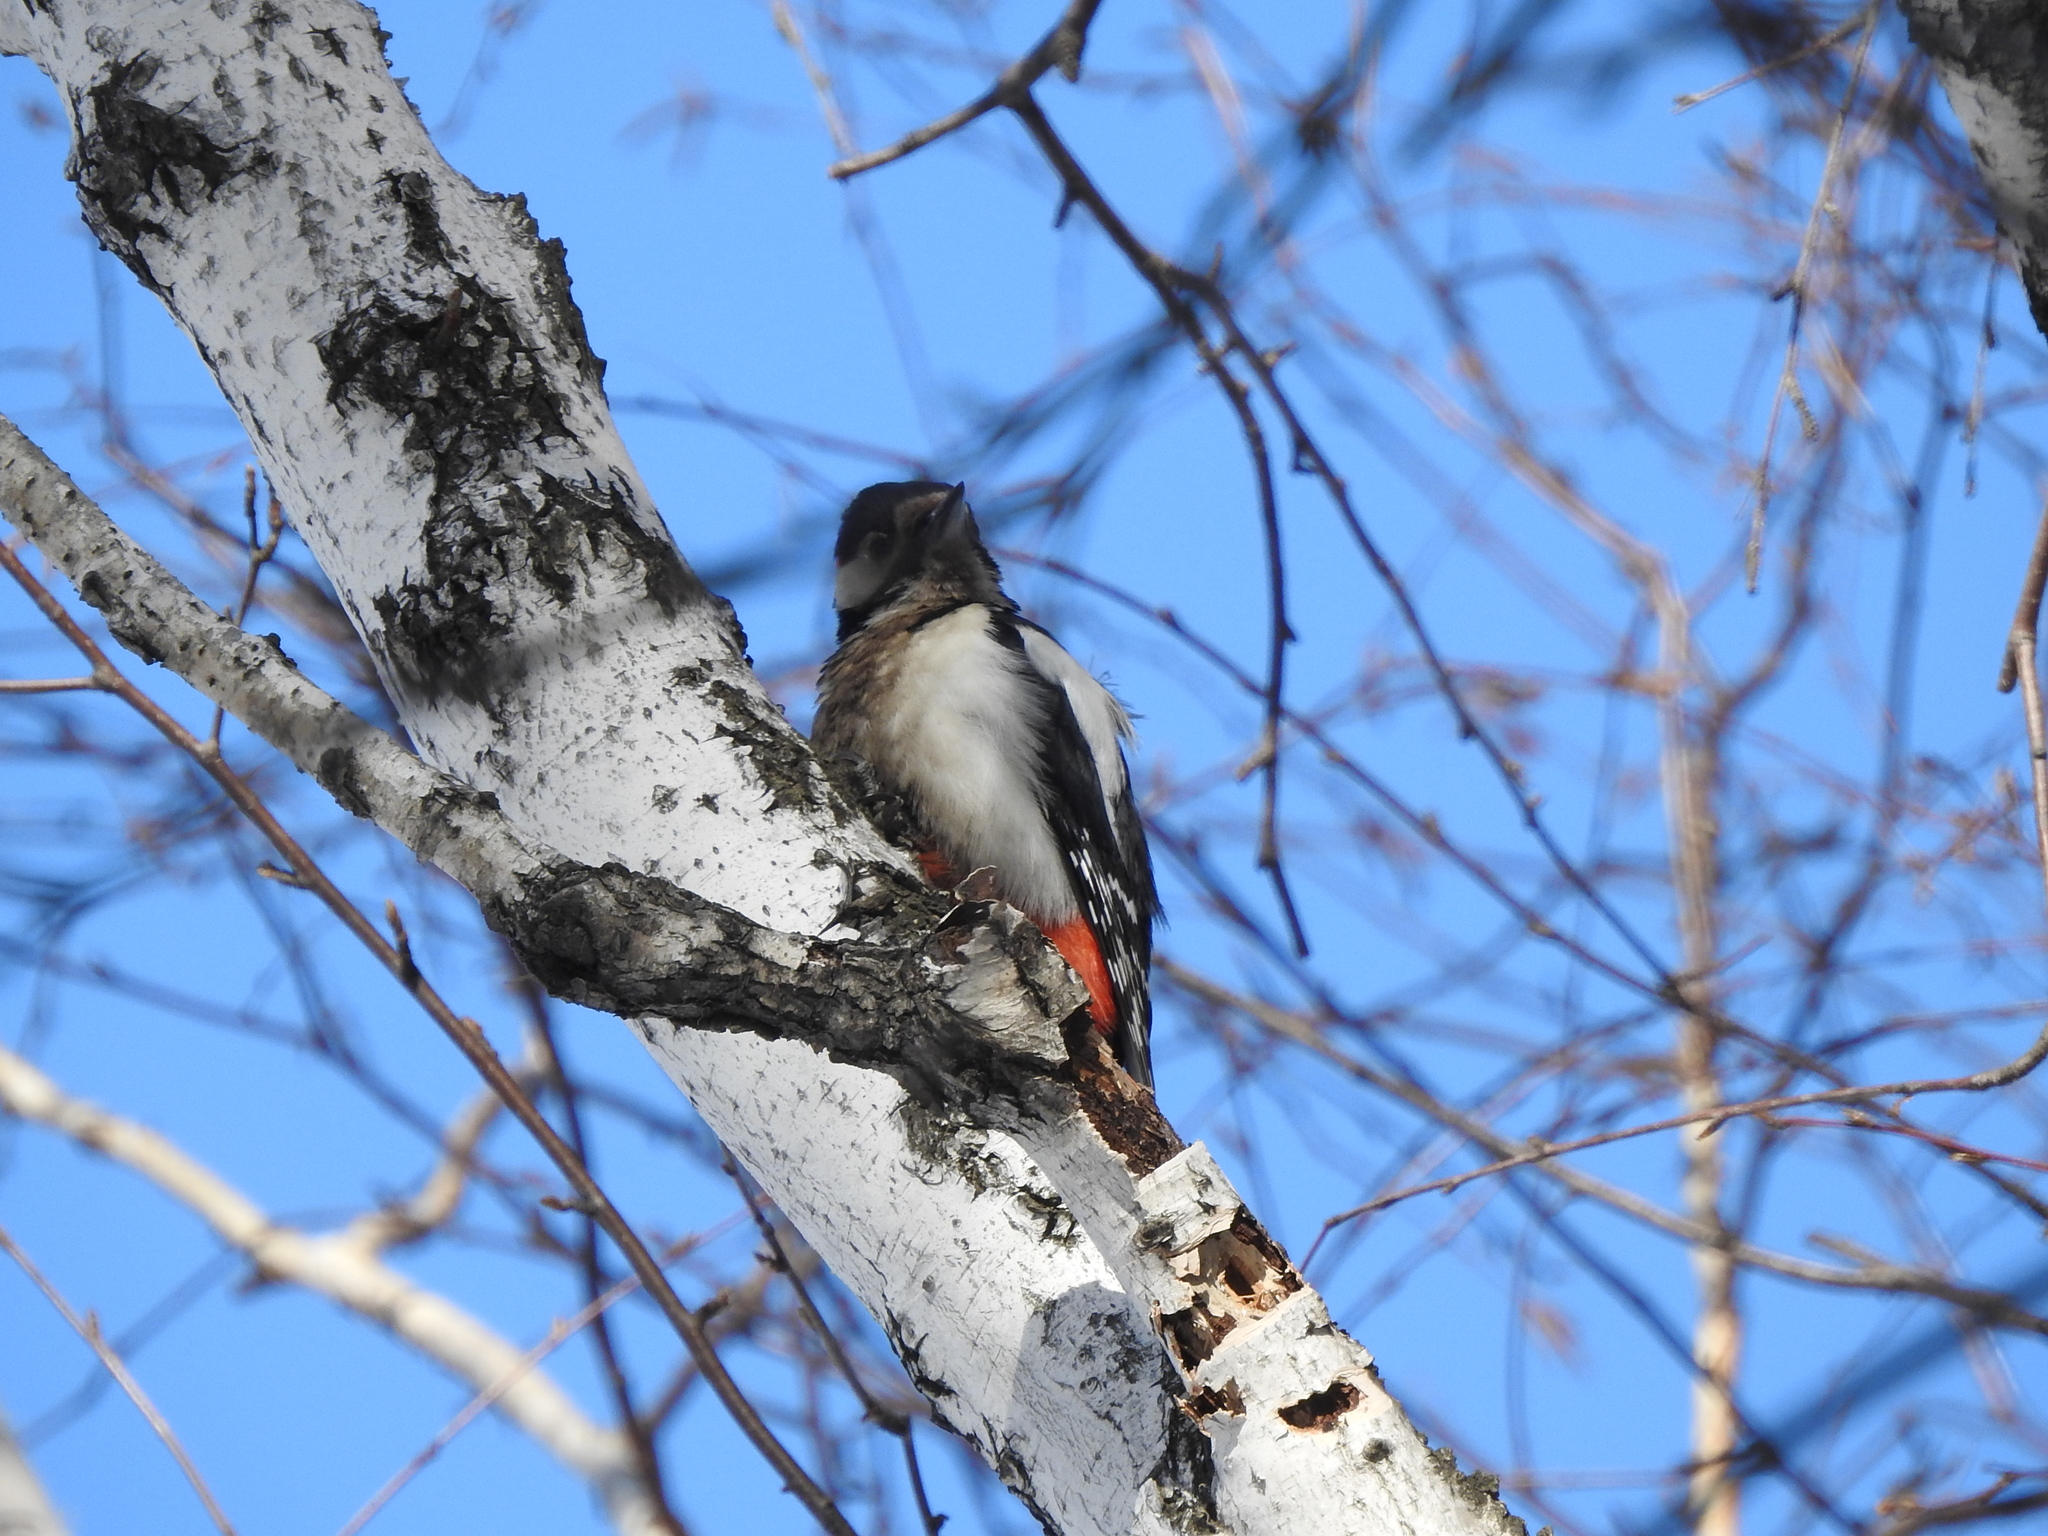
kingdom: Animalia
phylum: Chordata
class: Aves
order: Piciformes
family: Picidae
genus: Dendrocopos
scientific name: Dendrocopos major
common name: Great spotted woodpecker
